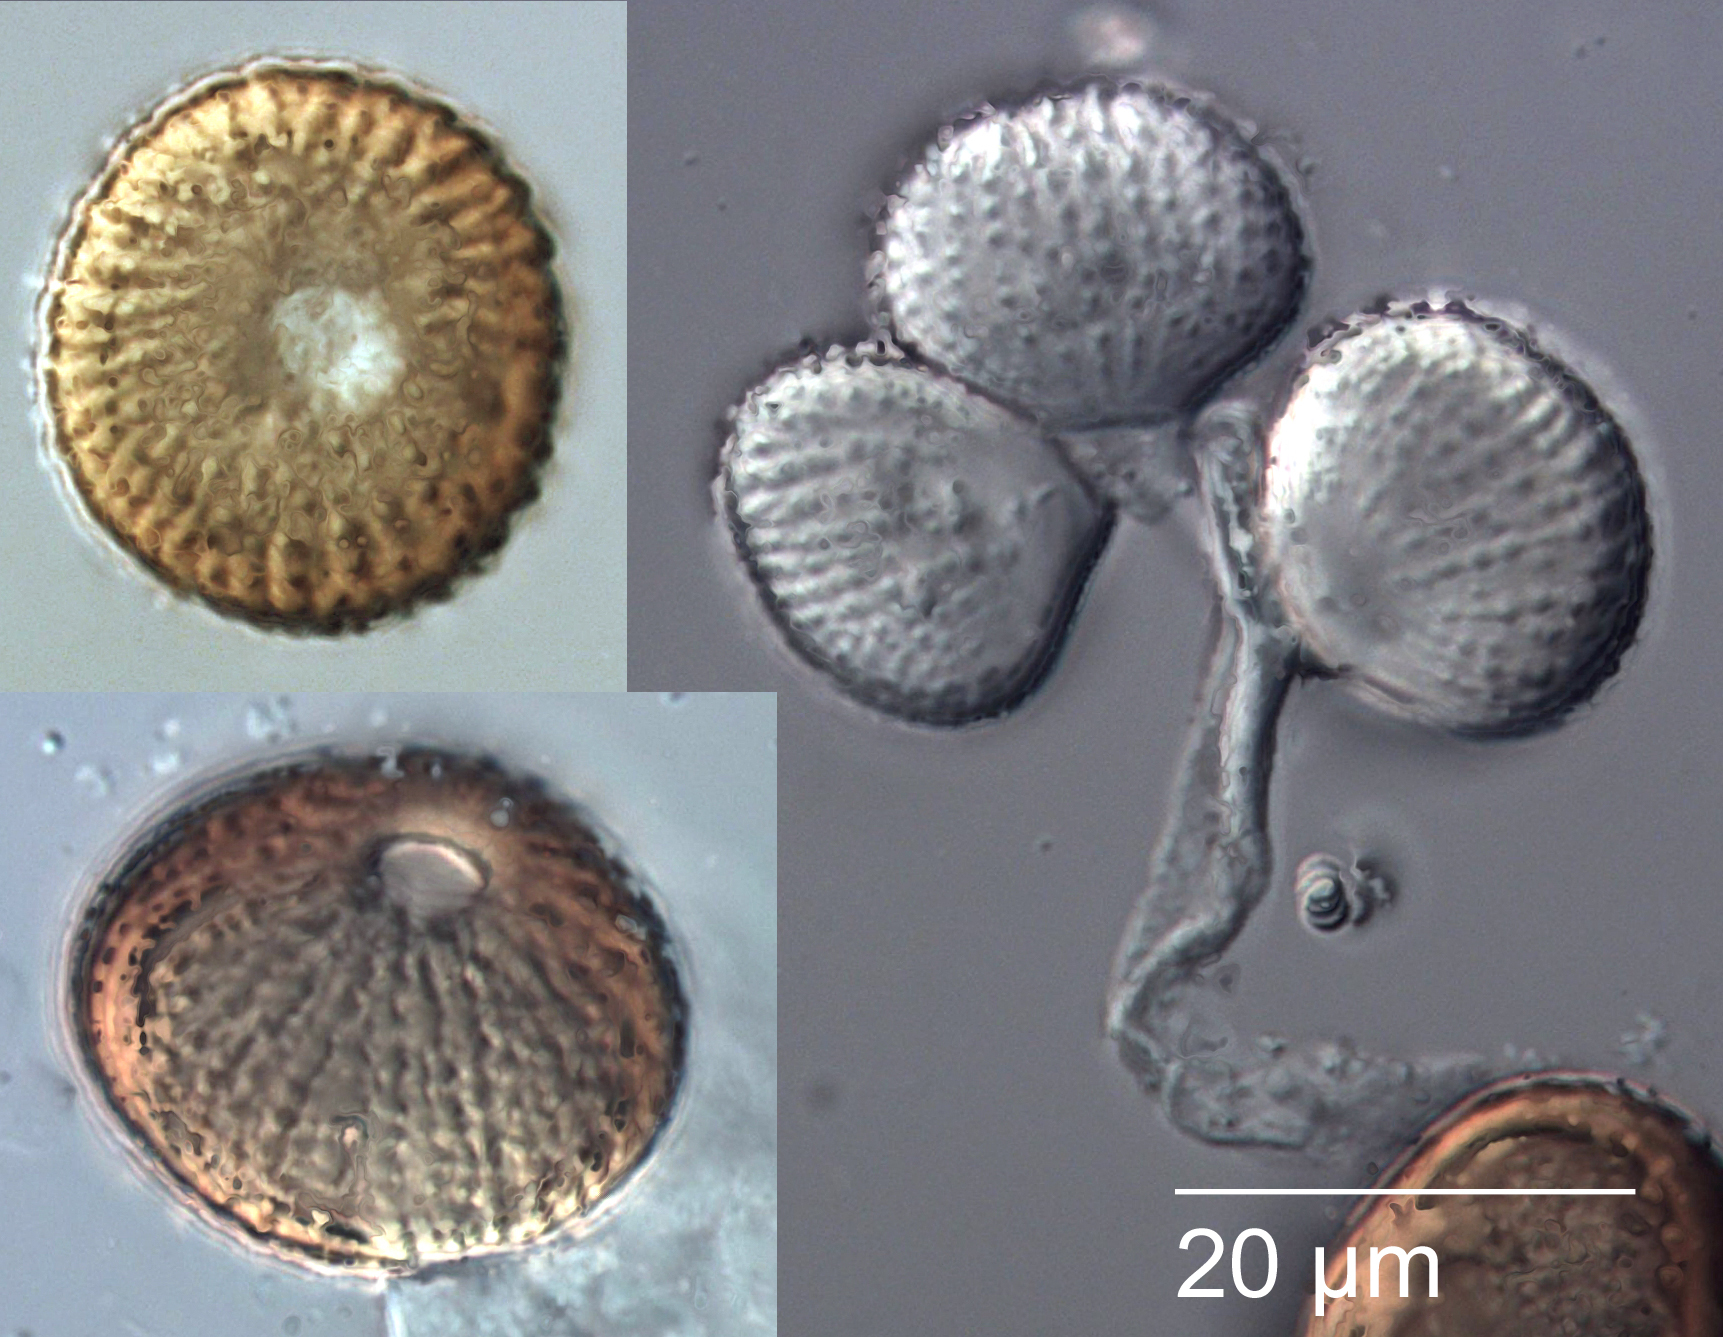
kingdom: Fungi
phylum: Basidiomycota
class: Pucciniomycetes
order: Pucciniales
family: Uromycladiaceae
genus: Uromycladium
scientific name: Uromycladium murphyi
